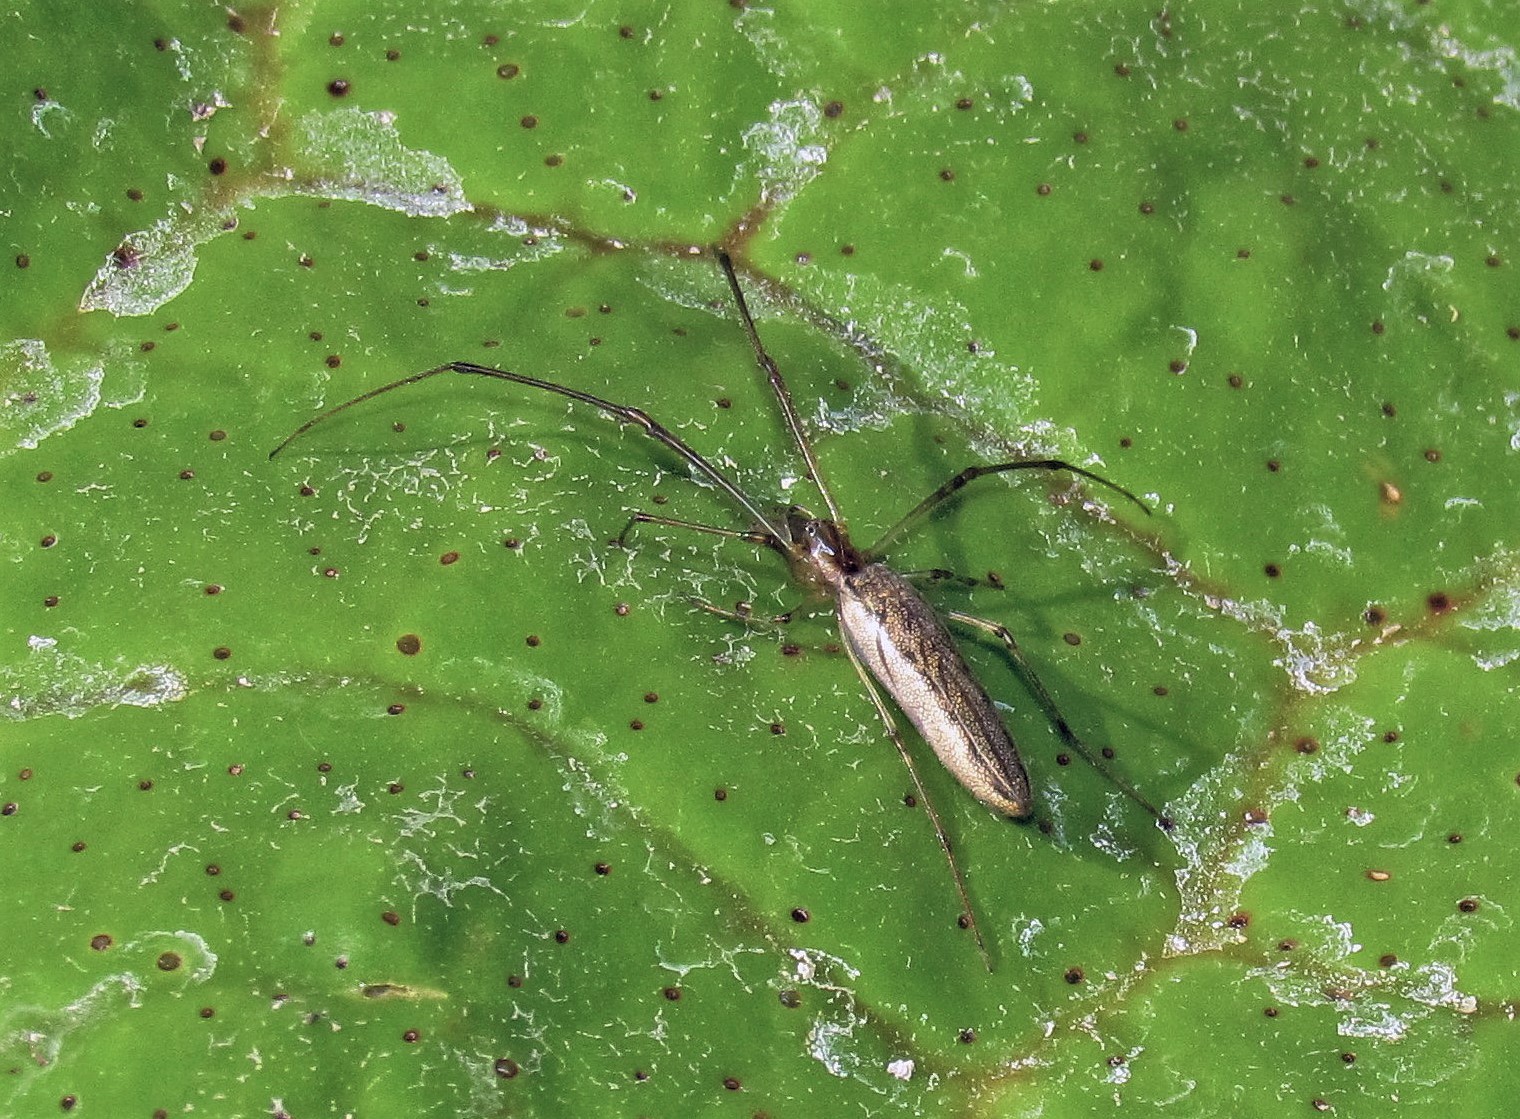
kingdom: Animalia
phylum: Arthropoda
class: Arachnida
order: Araneae
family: Tetragnathidae
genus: Tetragnatha
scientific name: Tetragnatha
